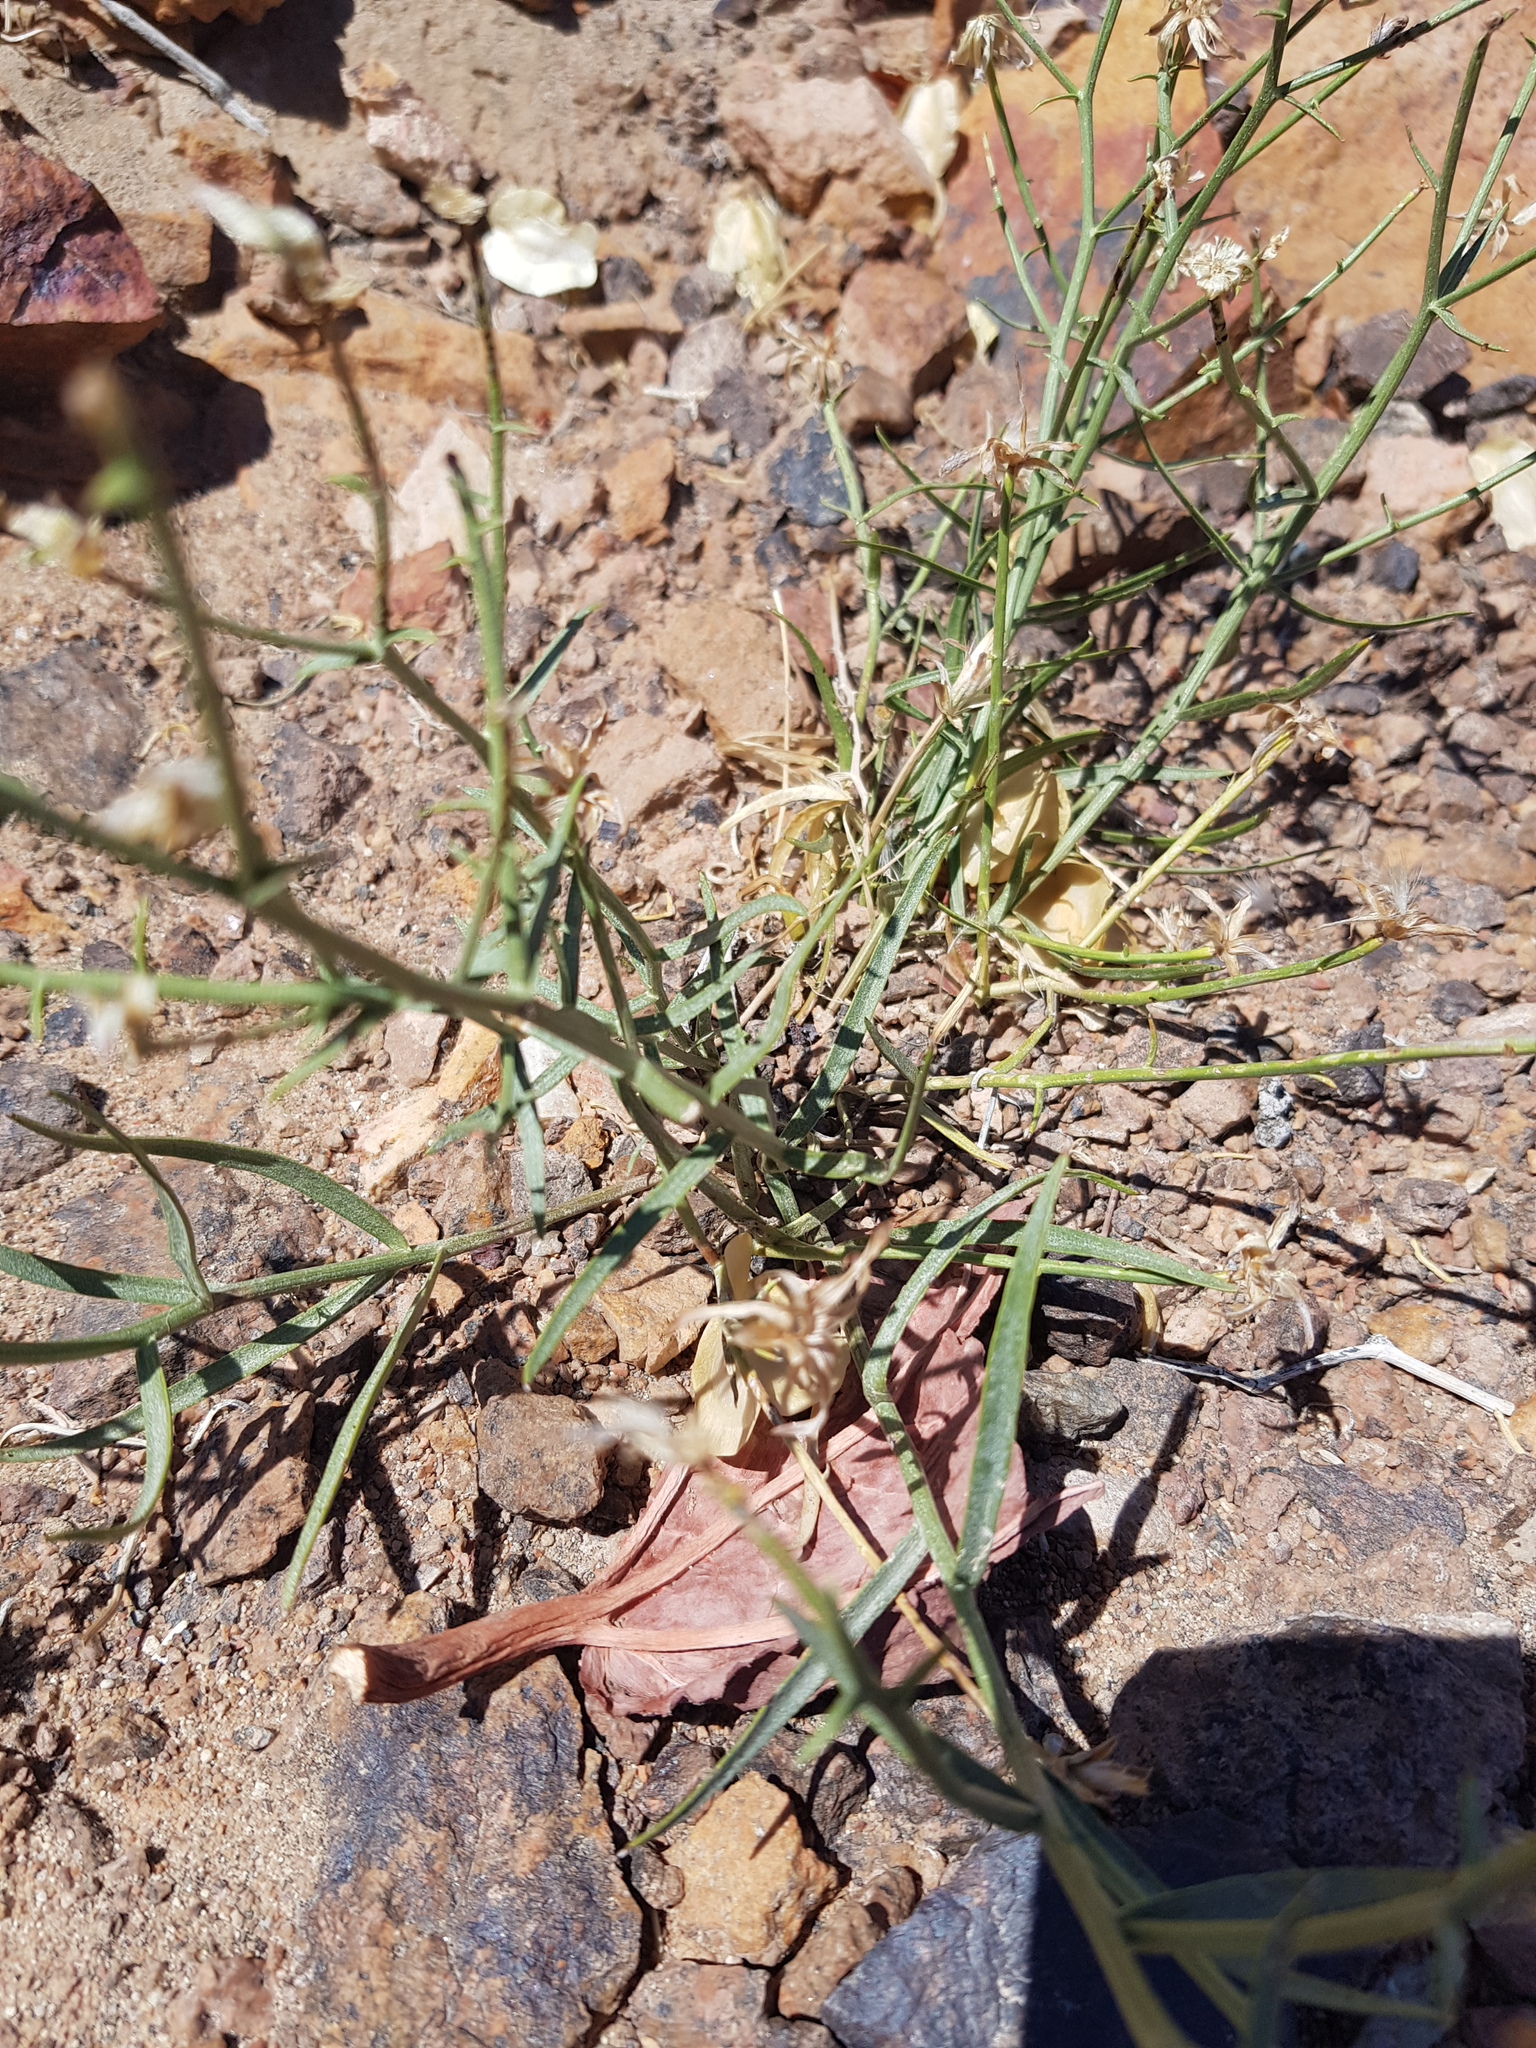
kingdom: Plantae
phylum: Tracheophyta
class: Magnoliopsida
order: Brassicales
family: Brassicaceae
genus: Dontostemon
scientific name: Dontostemon elegans
